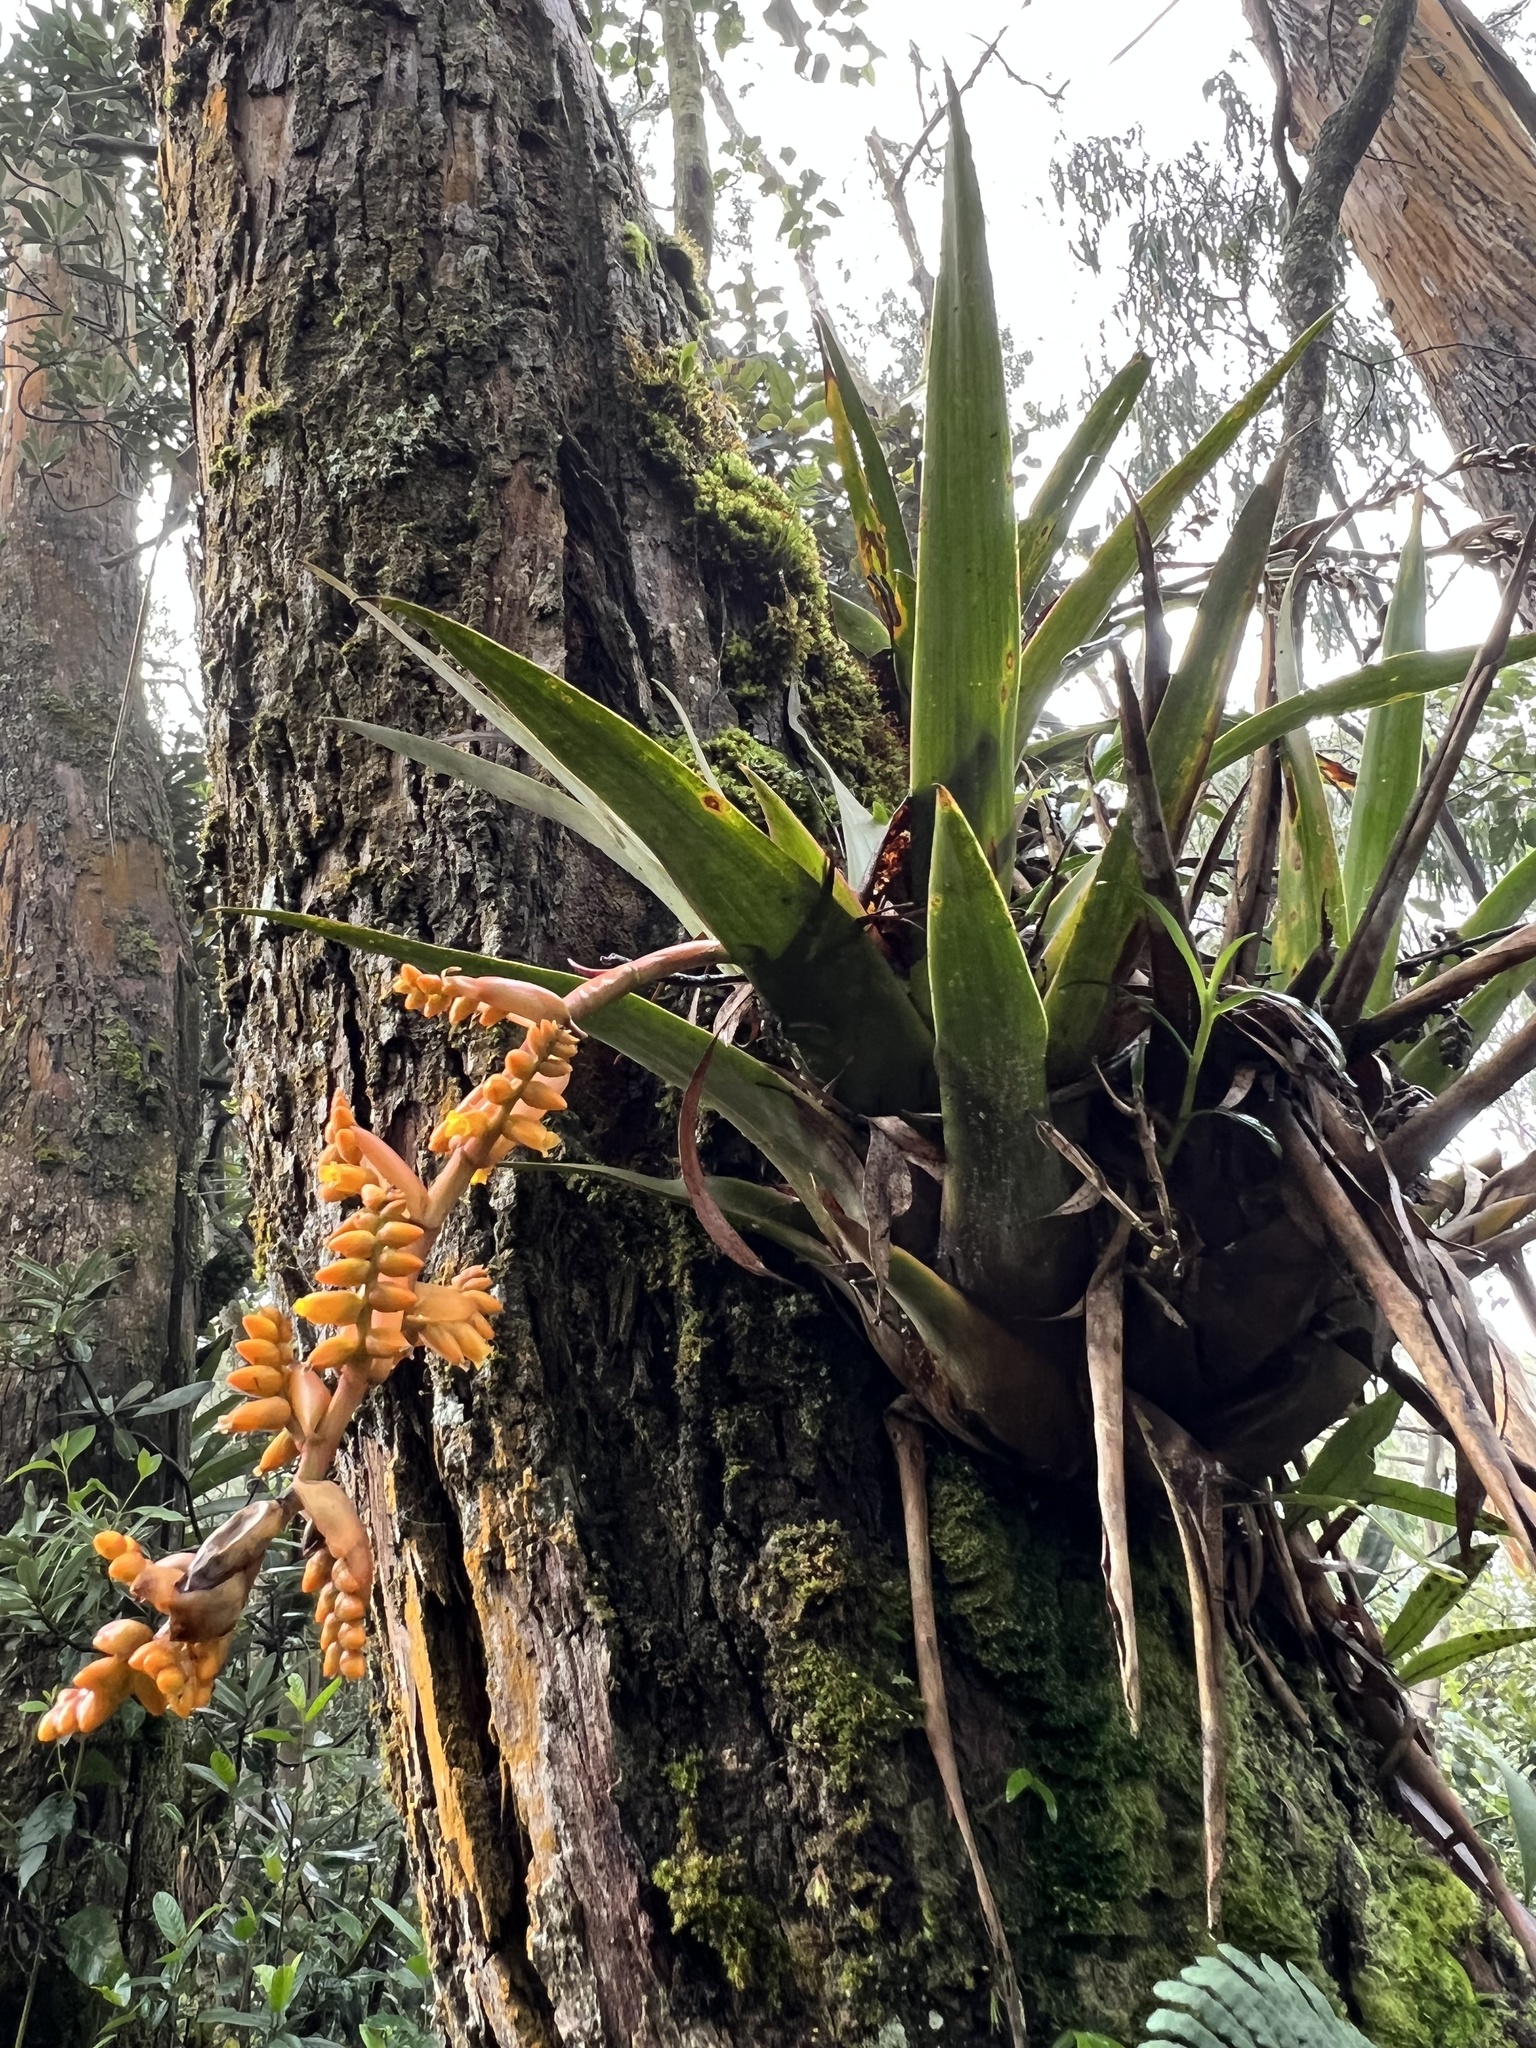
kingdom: Plantae
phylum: Tracheophyta
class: Liliopsida
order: Poales
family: Bromeliaceae
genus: Racinaea
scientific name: Racinaea tetrantha
